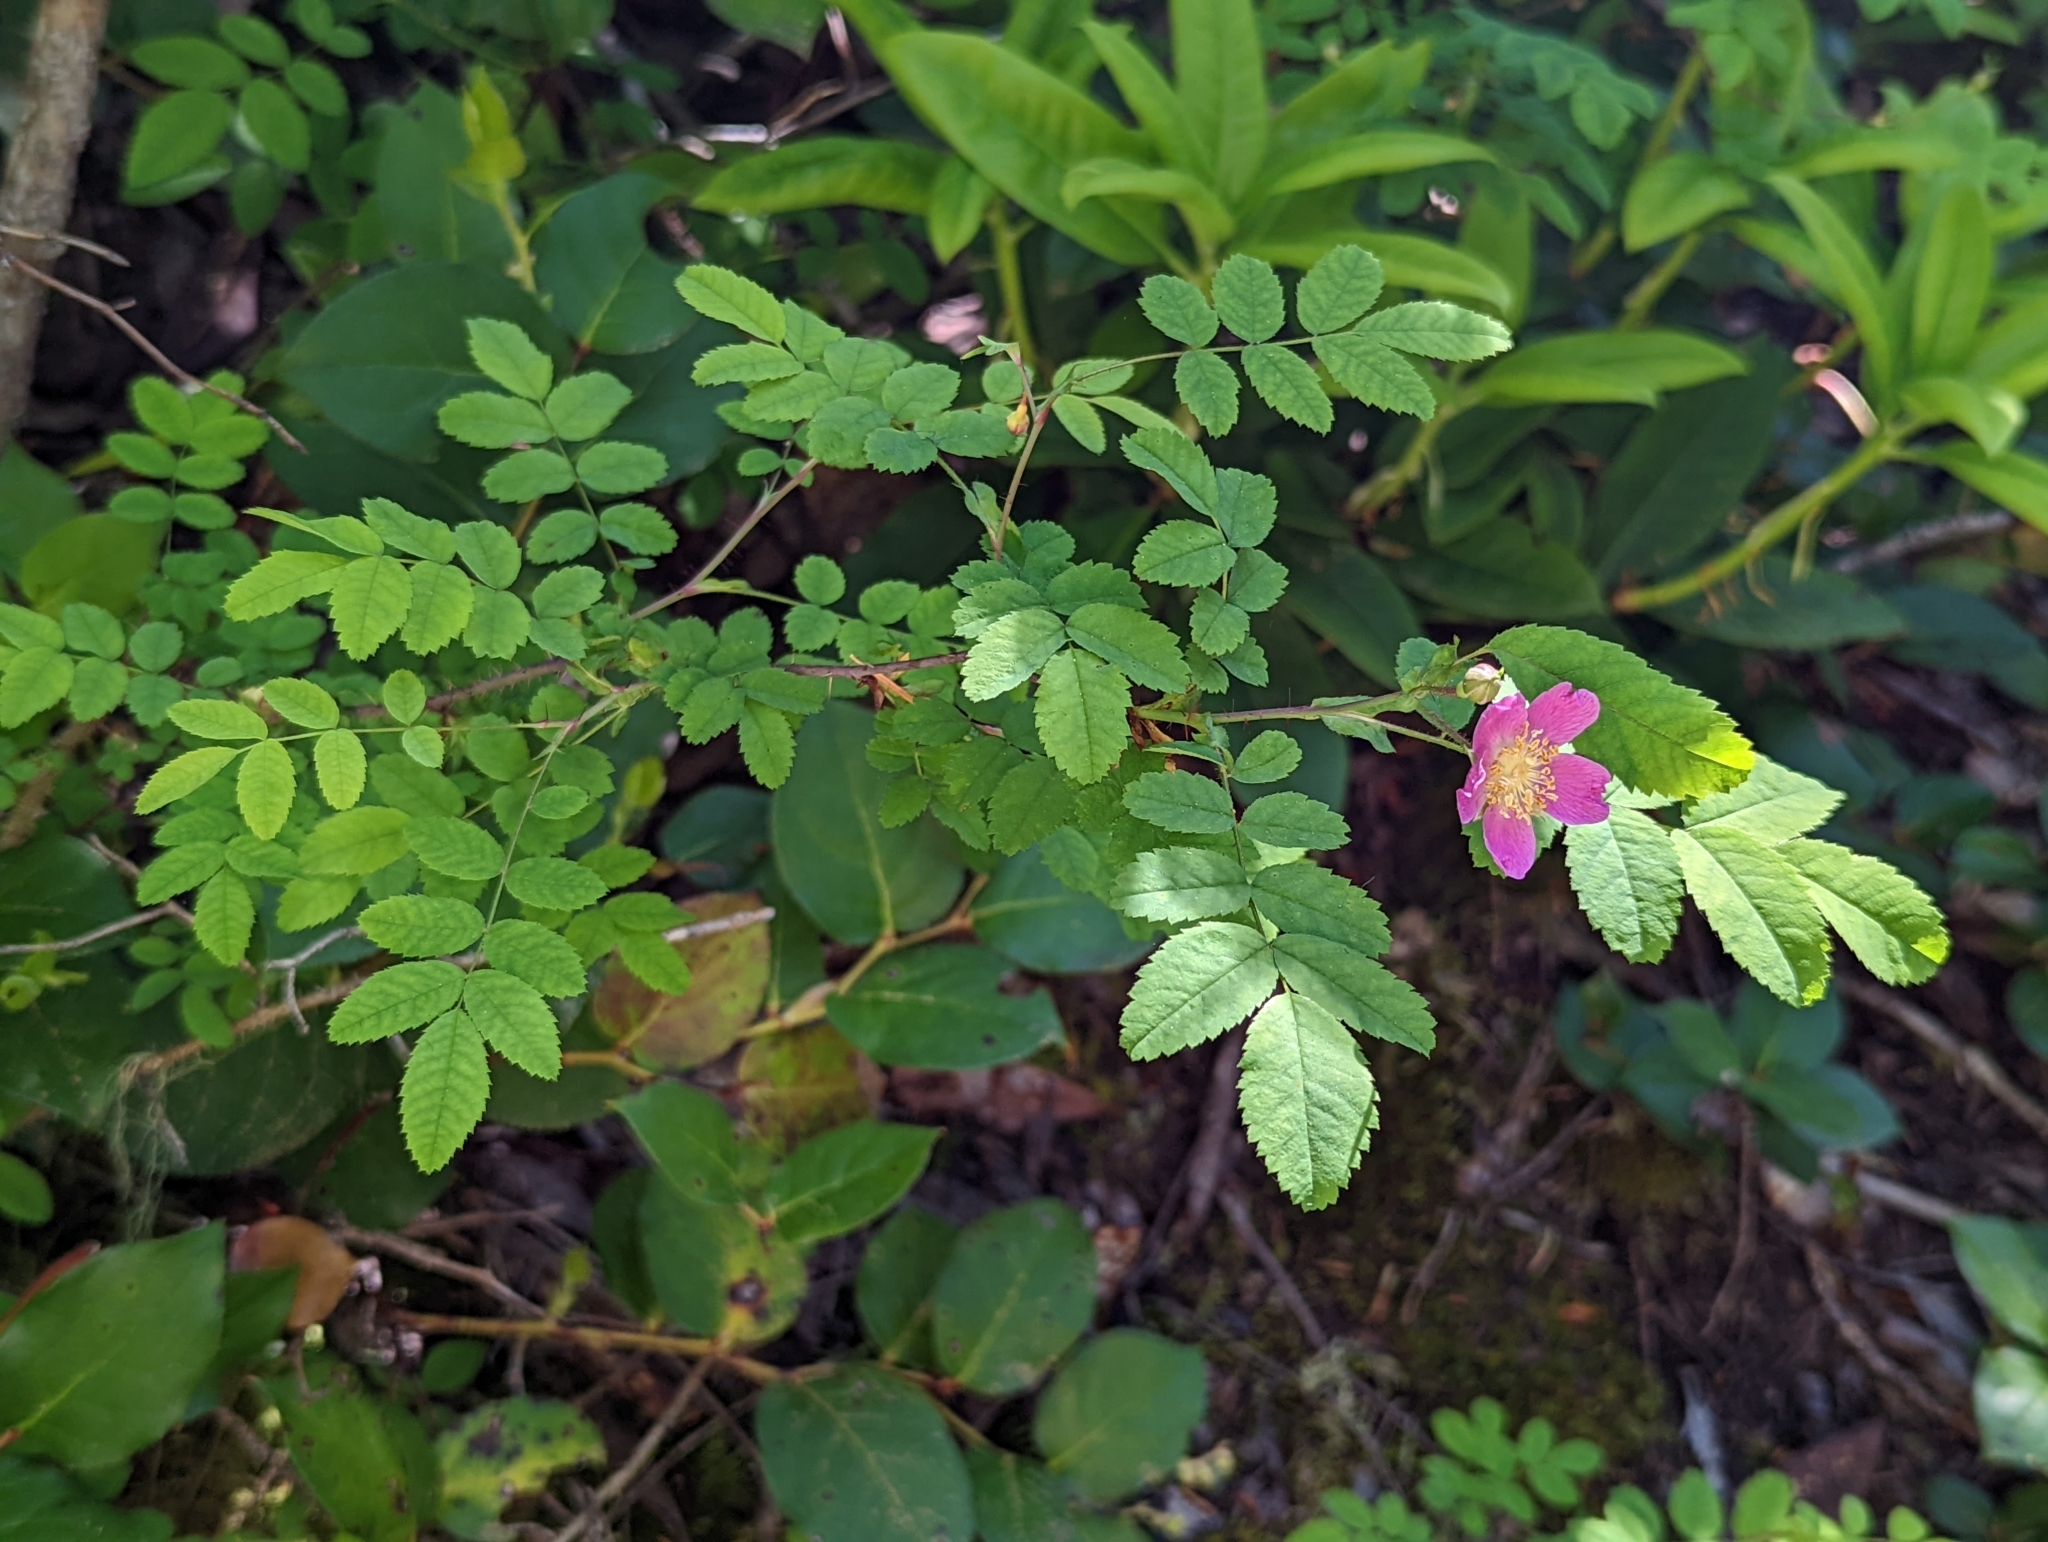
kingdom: Plantae
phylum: Tracheophyta
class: Magnoliopsida
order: Rosales
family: Rosaceae
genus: Rosa
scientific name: Rosa gymnocarpa
